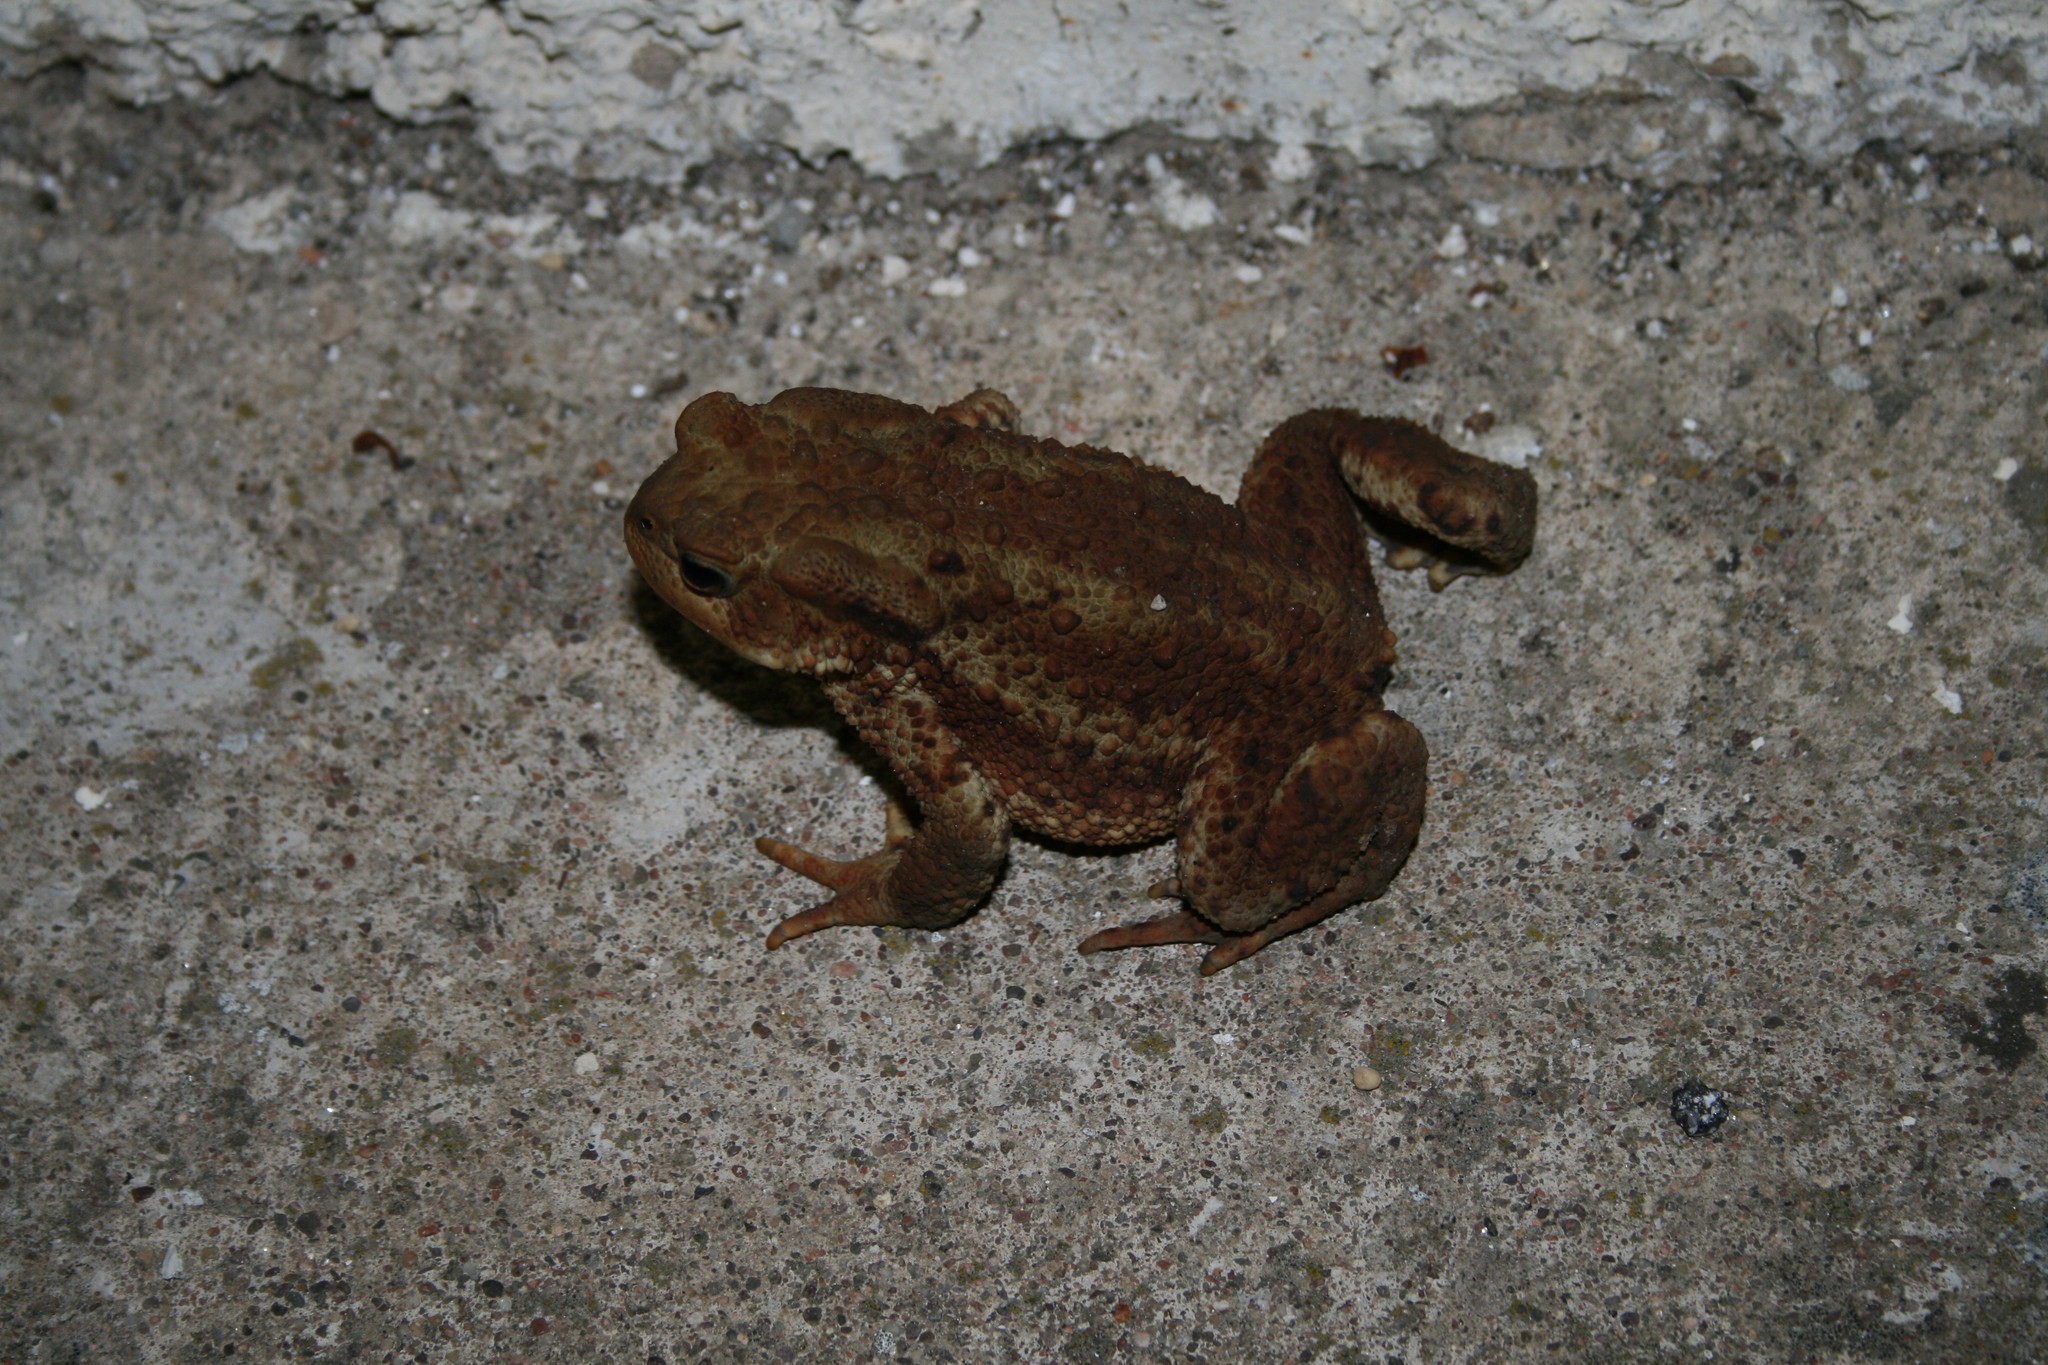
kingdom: Animalia
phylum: Chordata
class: Amphibia
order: Anura
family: Bufonidae
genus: Bufo
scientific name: Bufo bufo
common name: Common toad
